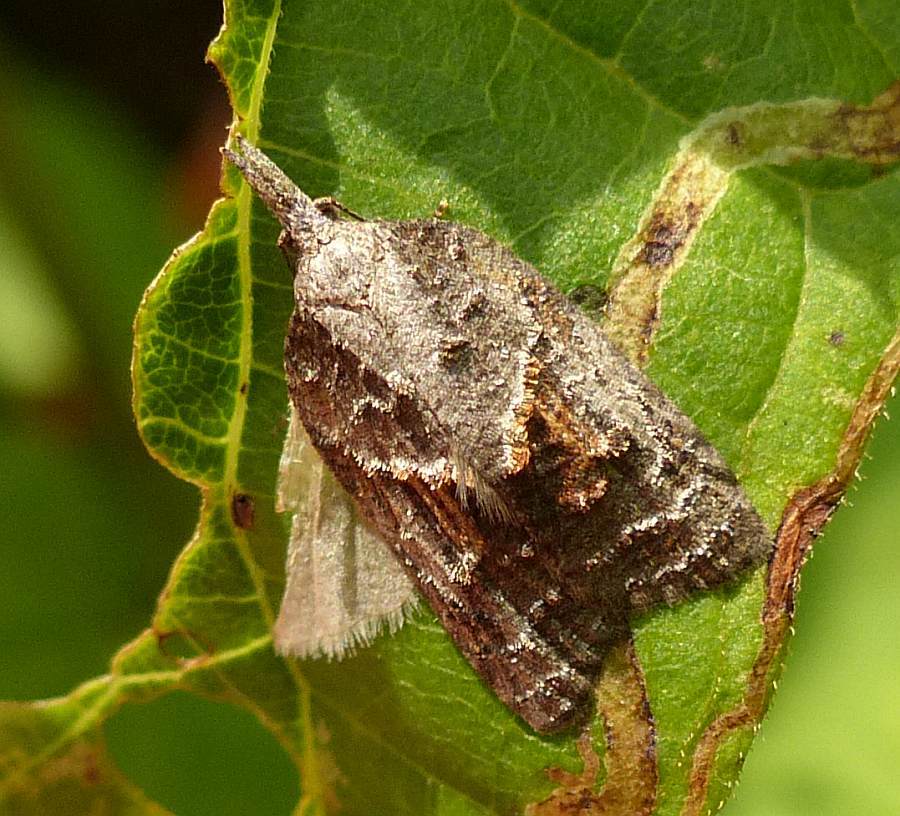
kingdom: Animalia
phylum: Arthropoda
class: Insecta
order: Lepidoptera
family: Tortricidae
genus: Platynota
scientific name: Platynota idaeusalis
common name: Tufted apple bud moth
